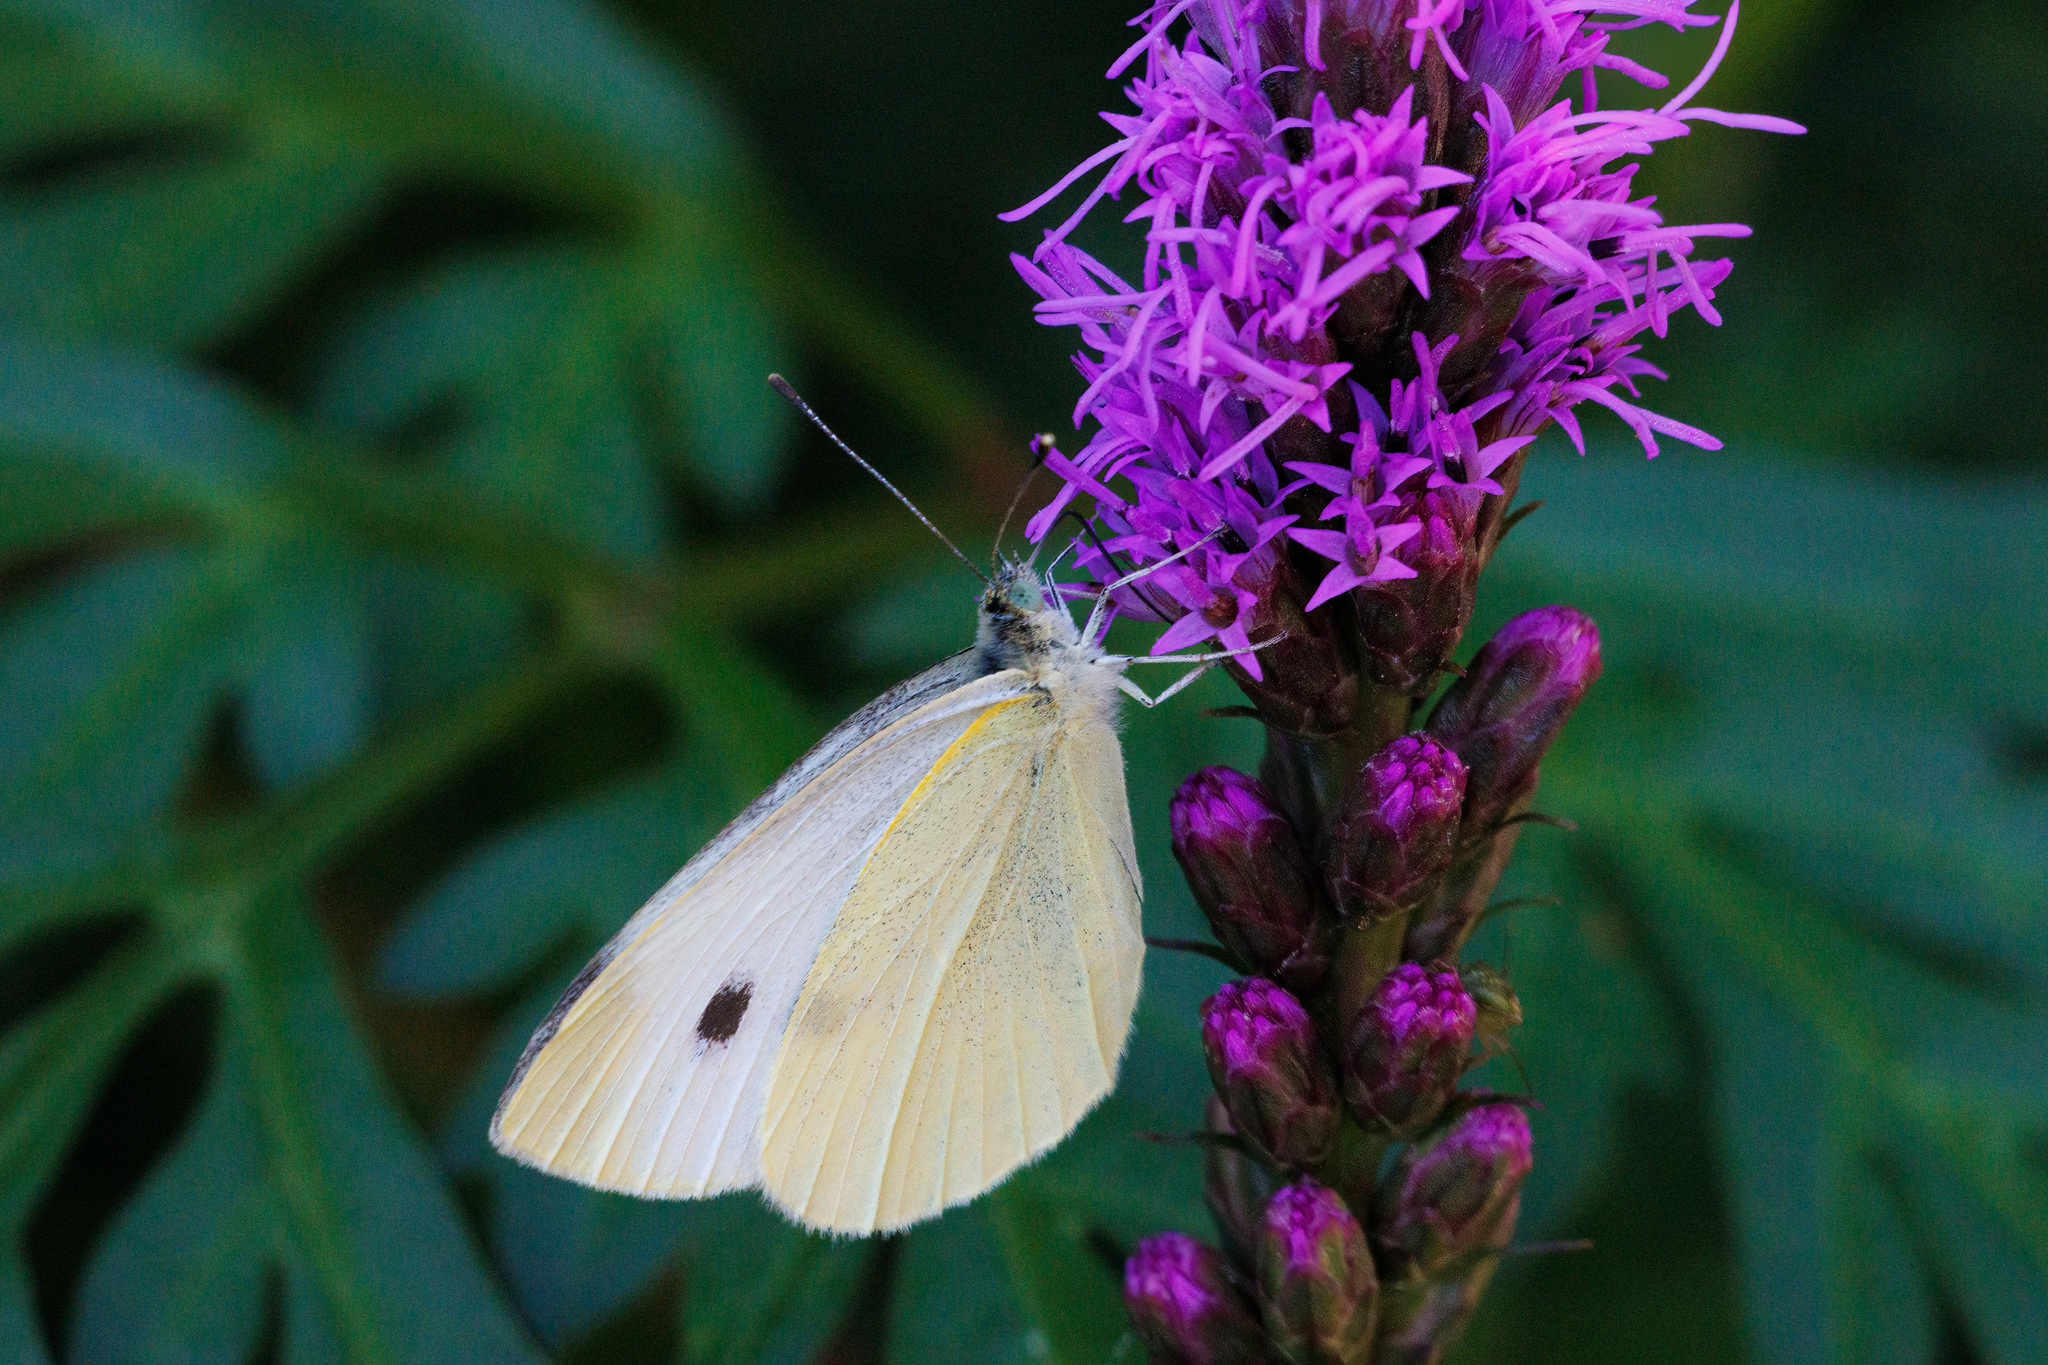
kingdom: Animalia
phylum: Arthropoda
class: Insecta
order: Lepidoptera
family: Pieridae
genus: Pieris
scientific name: Pieris rapae
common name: Small white
